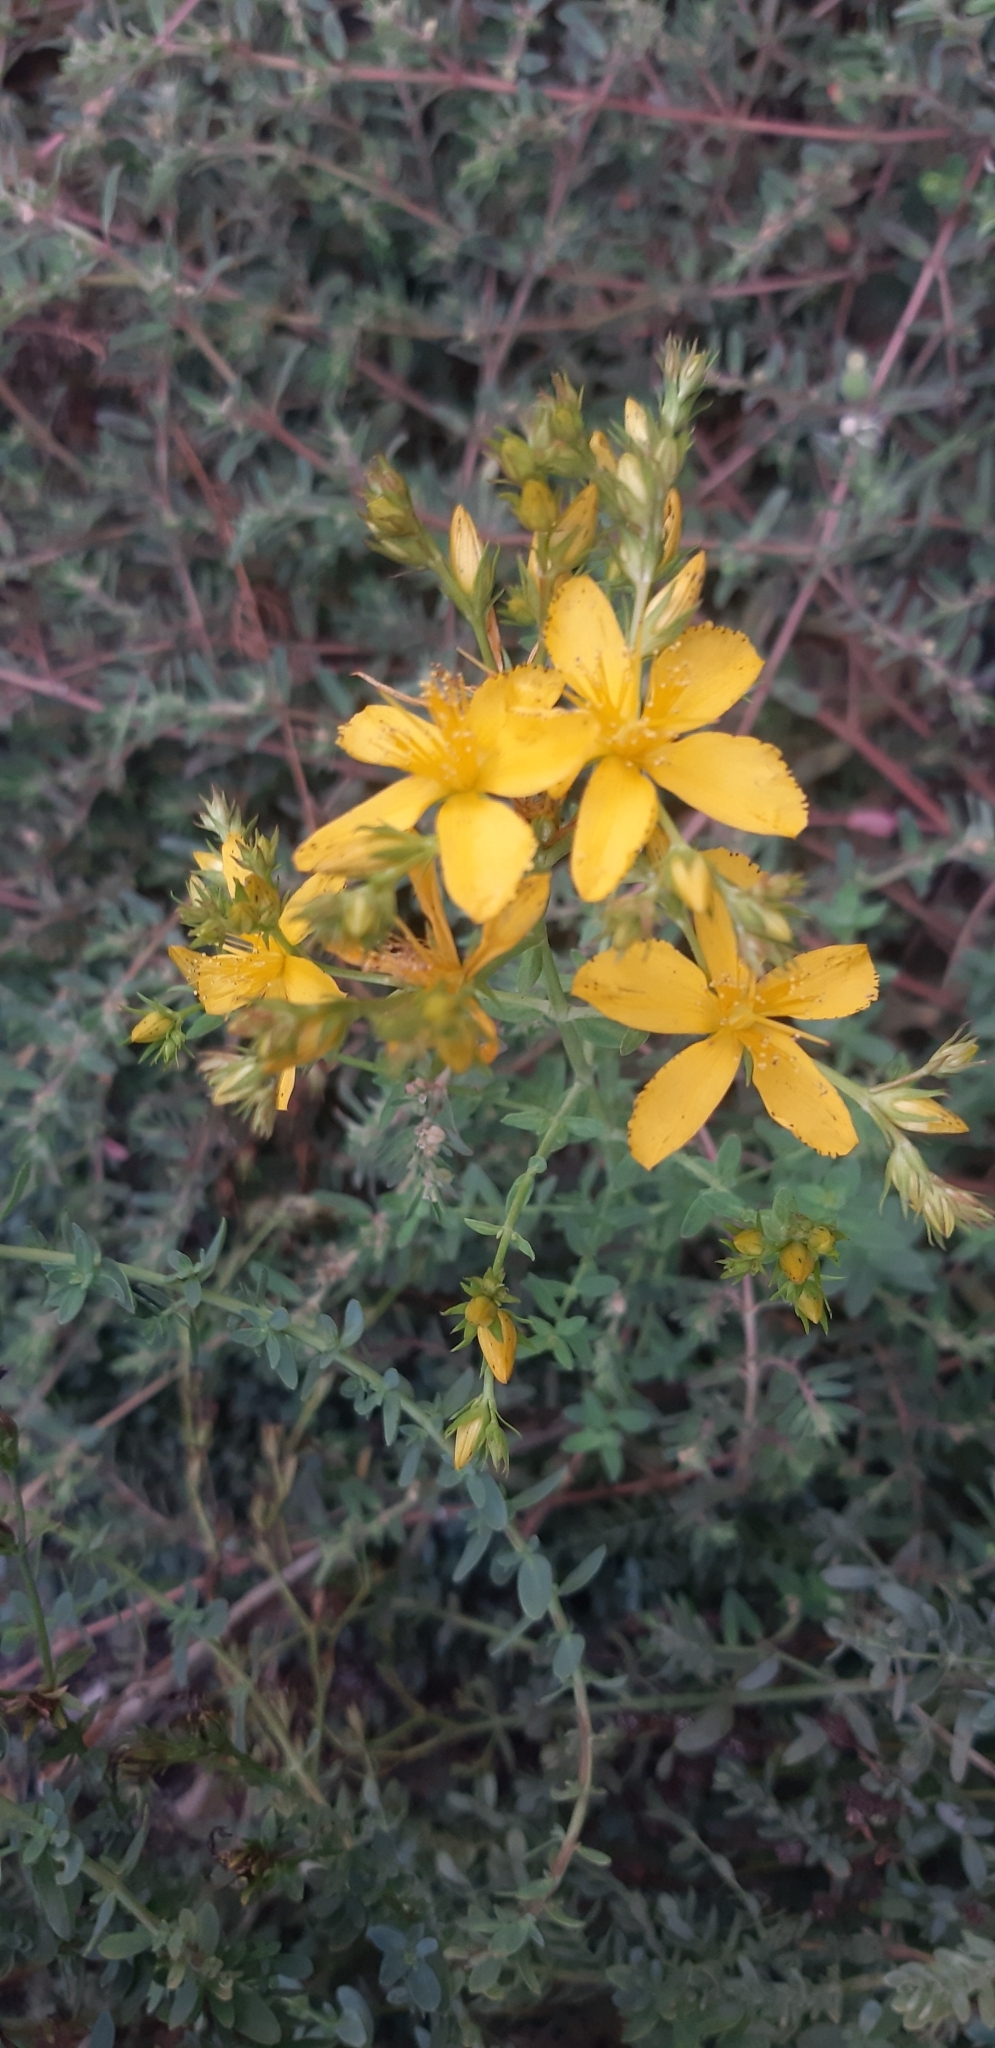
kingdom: Plantae
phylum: Tracheophyta
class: Magnoliopsida
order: Malpighiales
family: Hypericaceae
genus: Hypericum
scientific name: Hypericum perforatum
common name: Common st. johnswort
